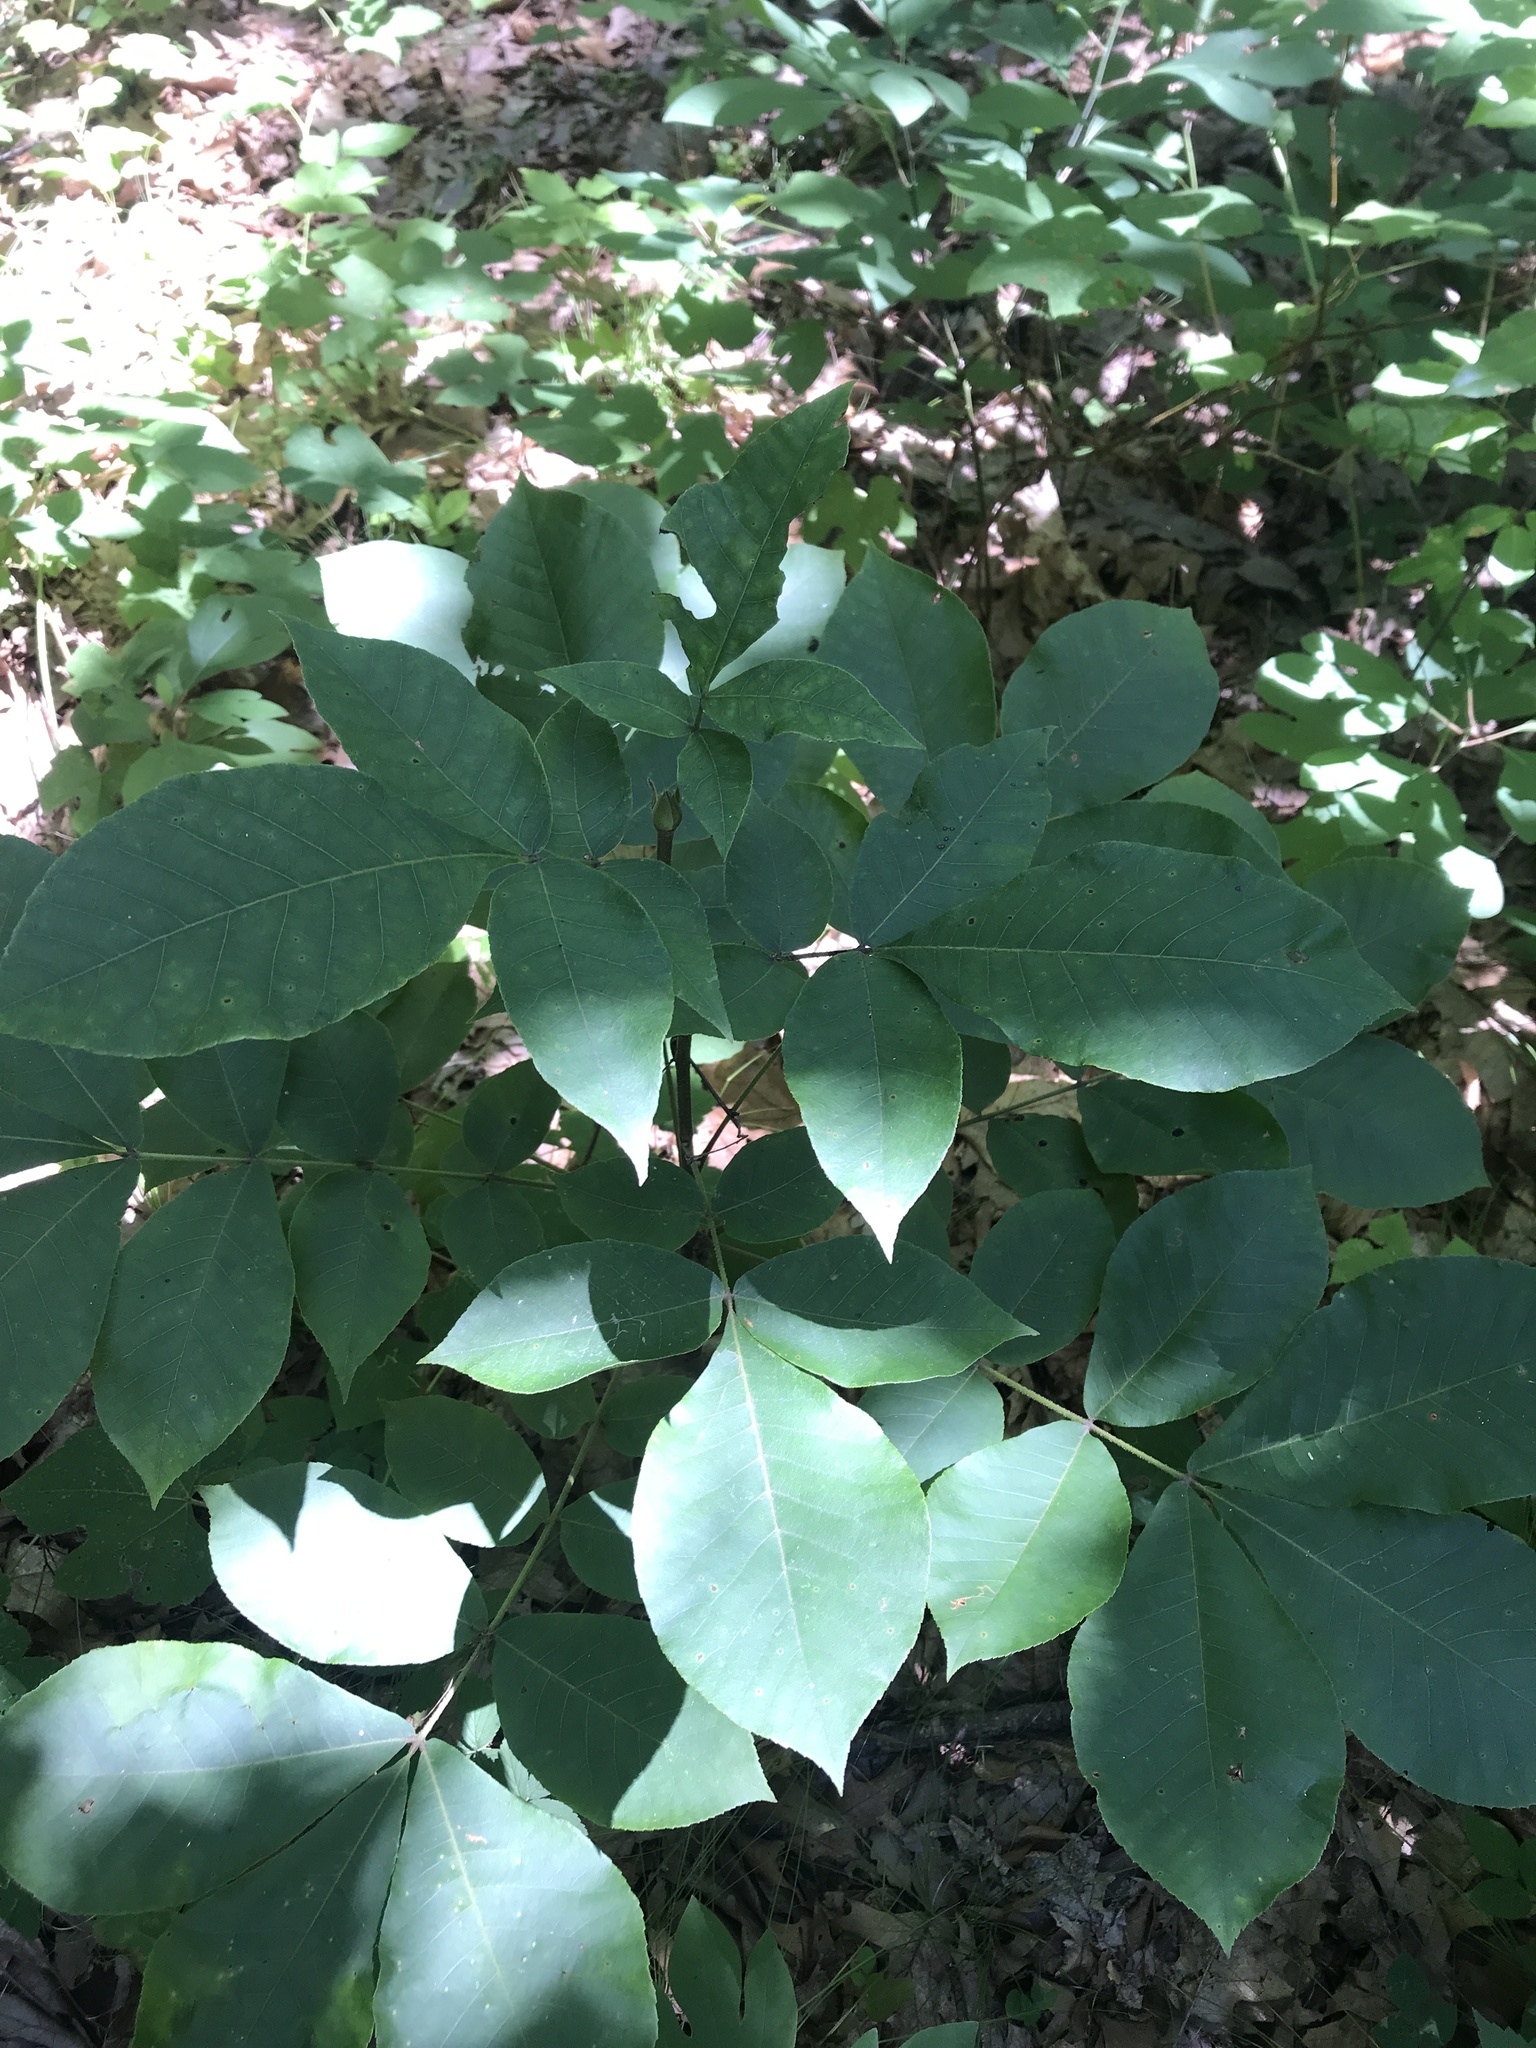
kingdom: Plantae
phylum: Tracheophyta
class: Magnoliopsida
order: Fagales
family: Juglandaceae
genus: Carya
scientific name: Carya alba
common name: Mockernut hickory
